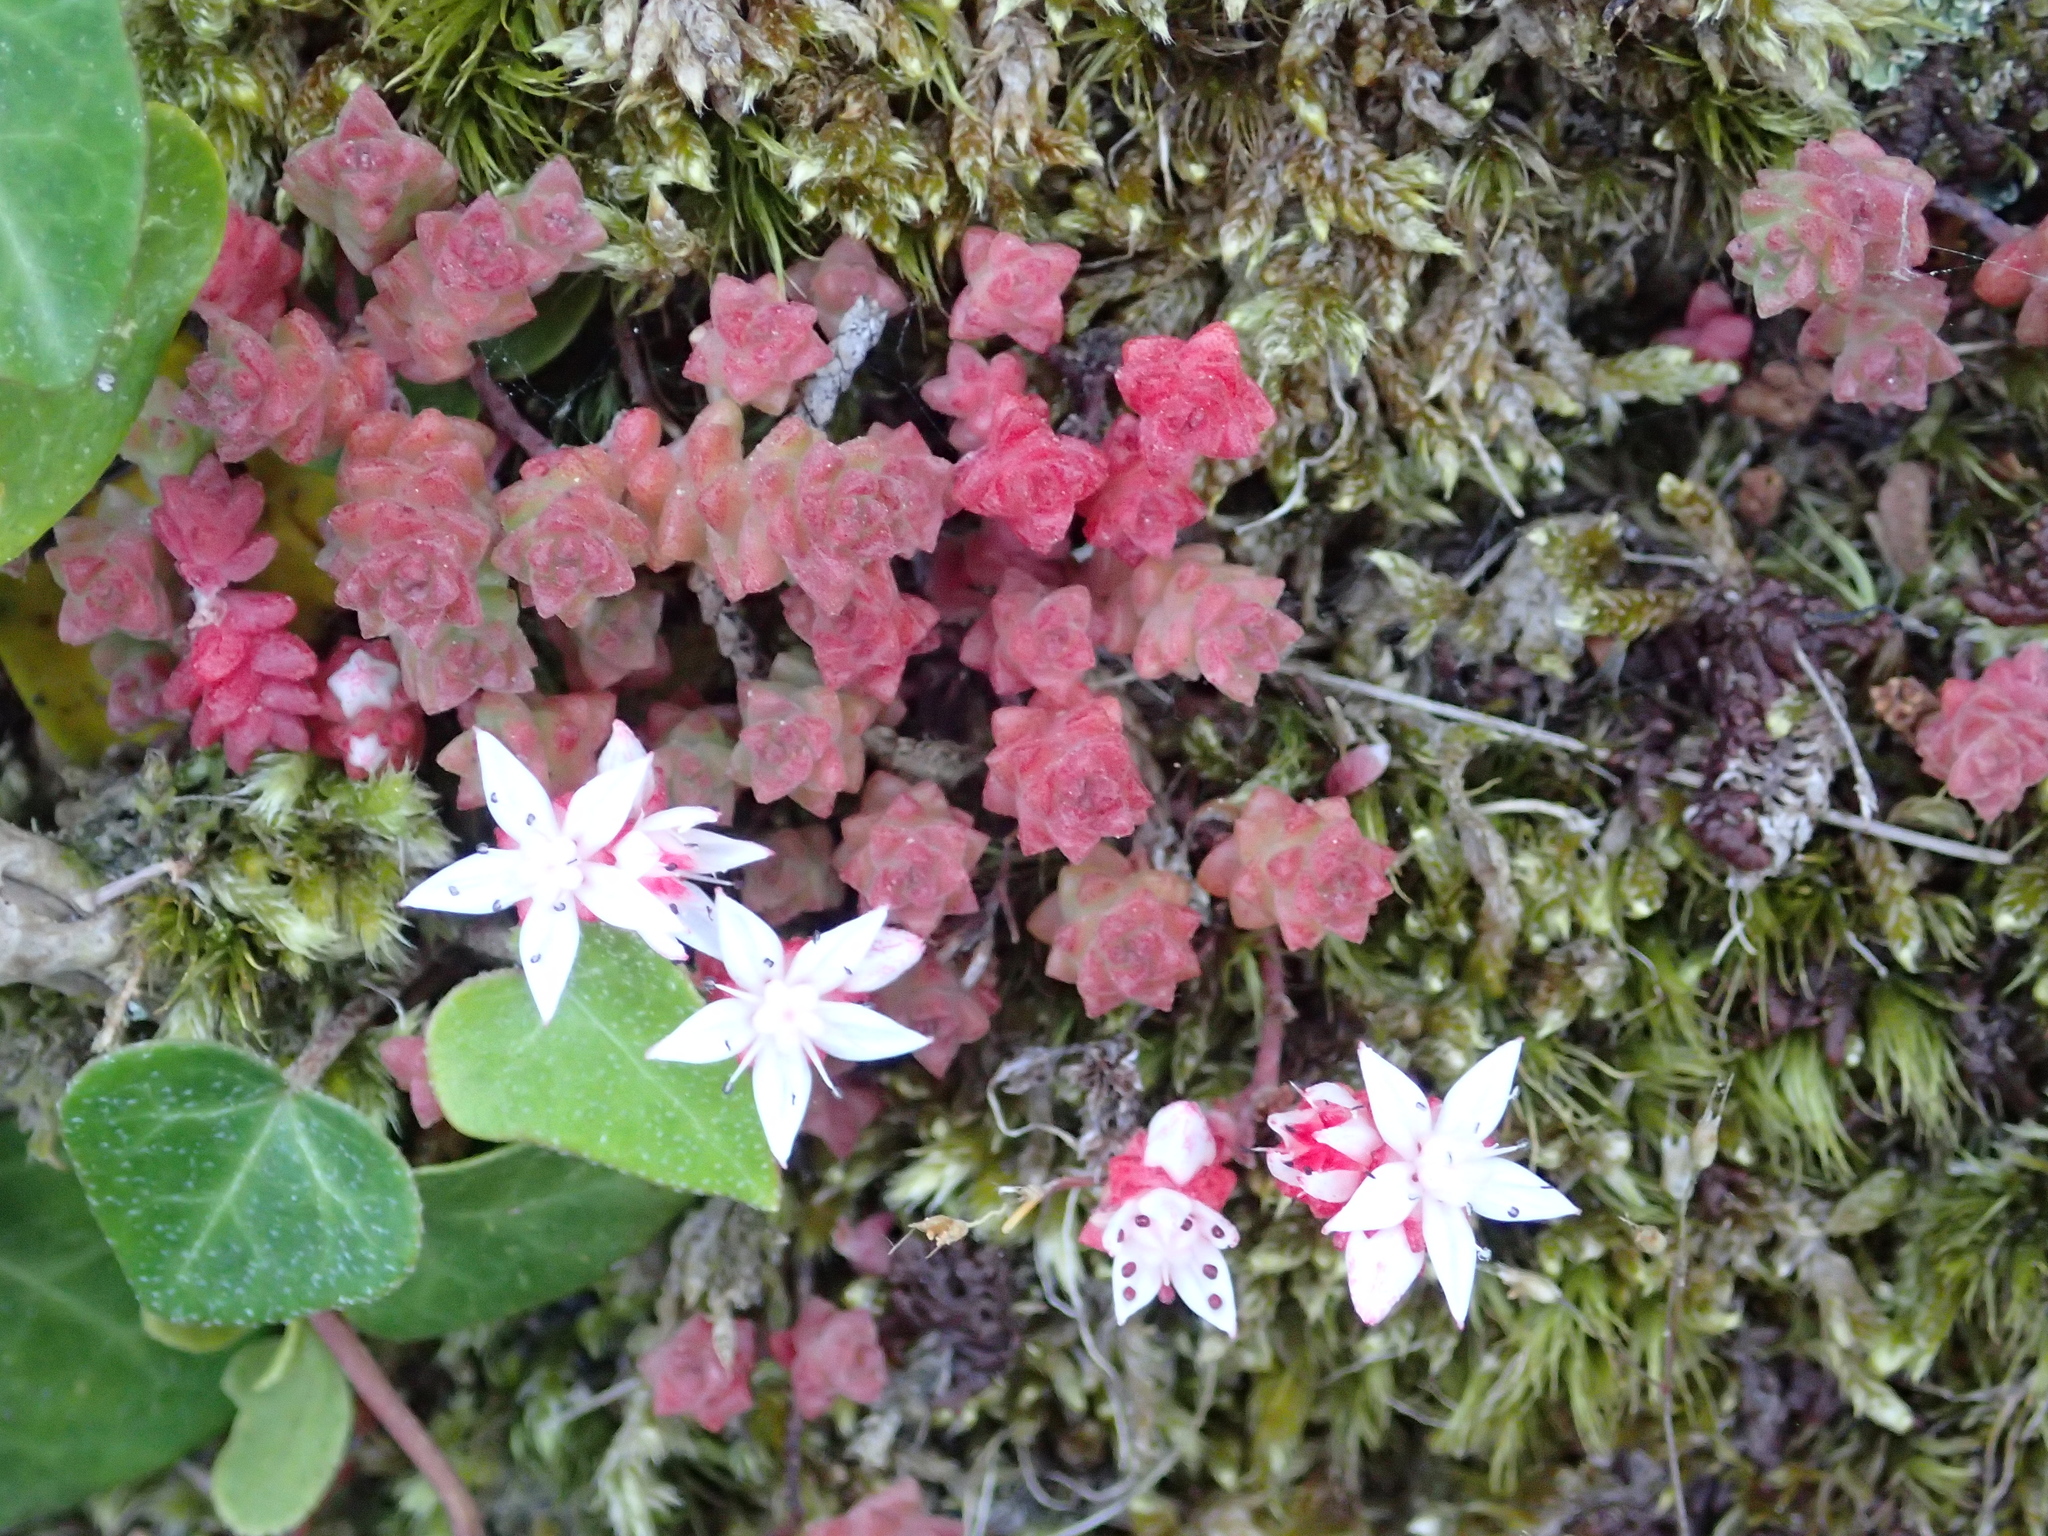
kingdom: Plantae
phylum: Tracheophyta
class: Magnoliopsida
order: Saxifragales
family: Crassulaceae
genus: Sedum
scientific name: Sedum anglicum
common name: English stonecrop
